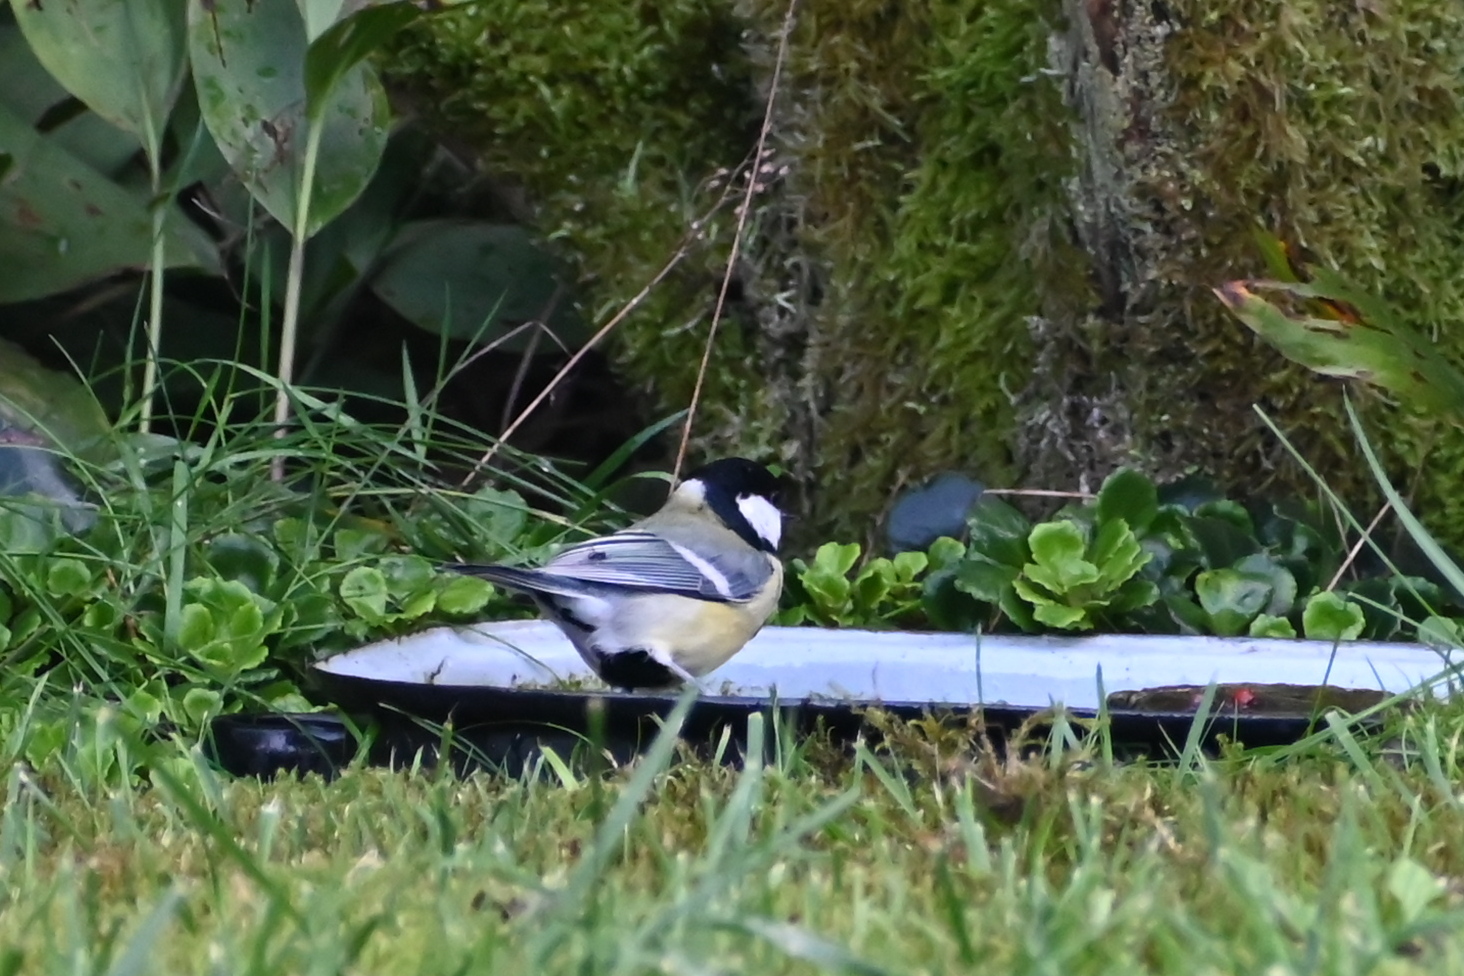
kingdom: Animalia
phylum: Chordata
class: Aves
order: Passeriformes
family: Paridae
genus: Parus
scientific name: Parus major
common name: Great tit
